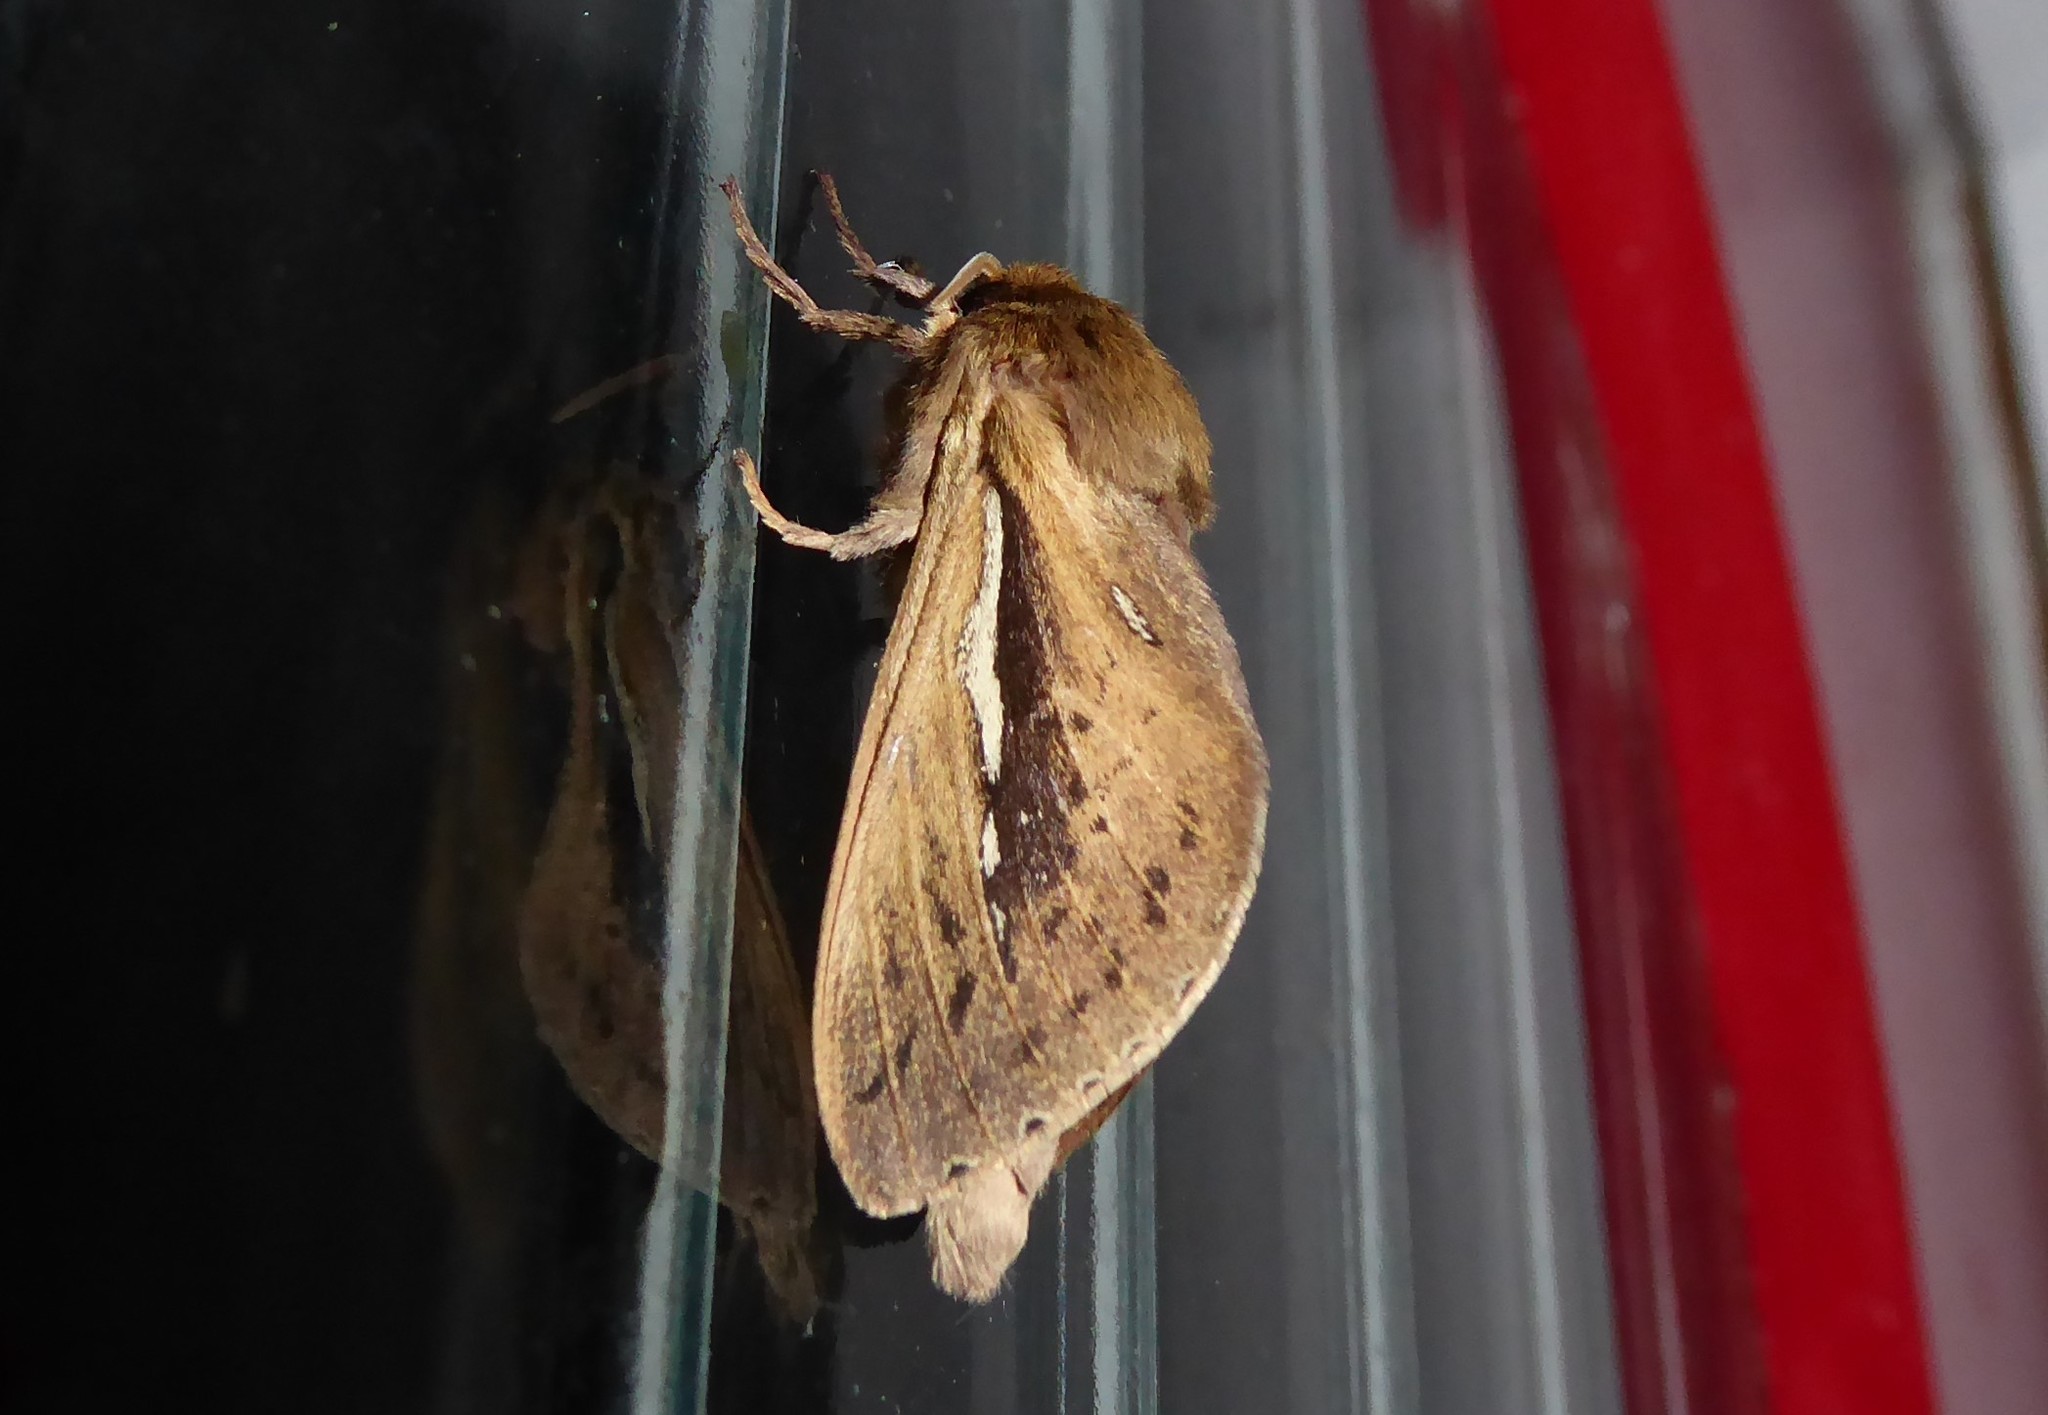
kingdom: Animalia
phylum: Arthropoda
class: Insecta
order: Lepidoptera
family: Hepialidae
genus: Wiseana
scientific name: Wiseana umbraculatus
